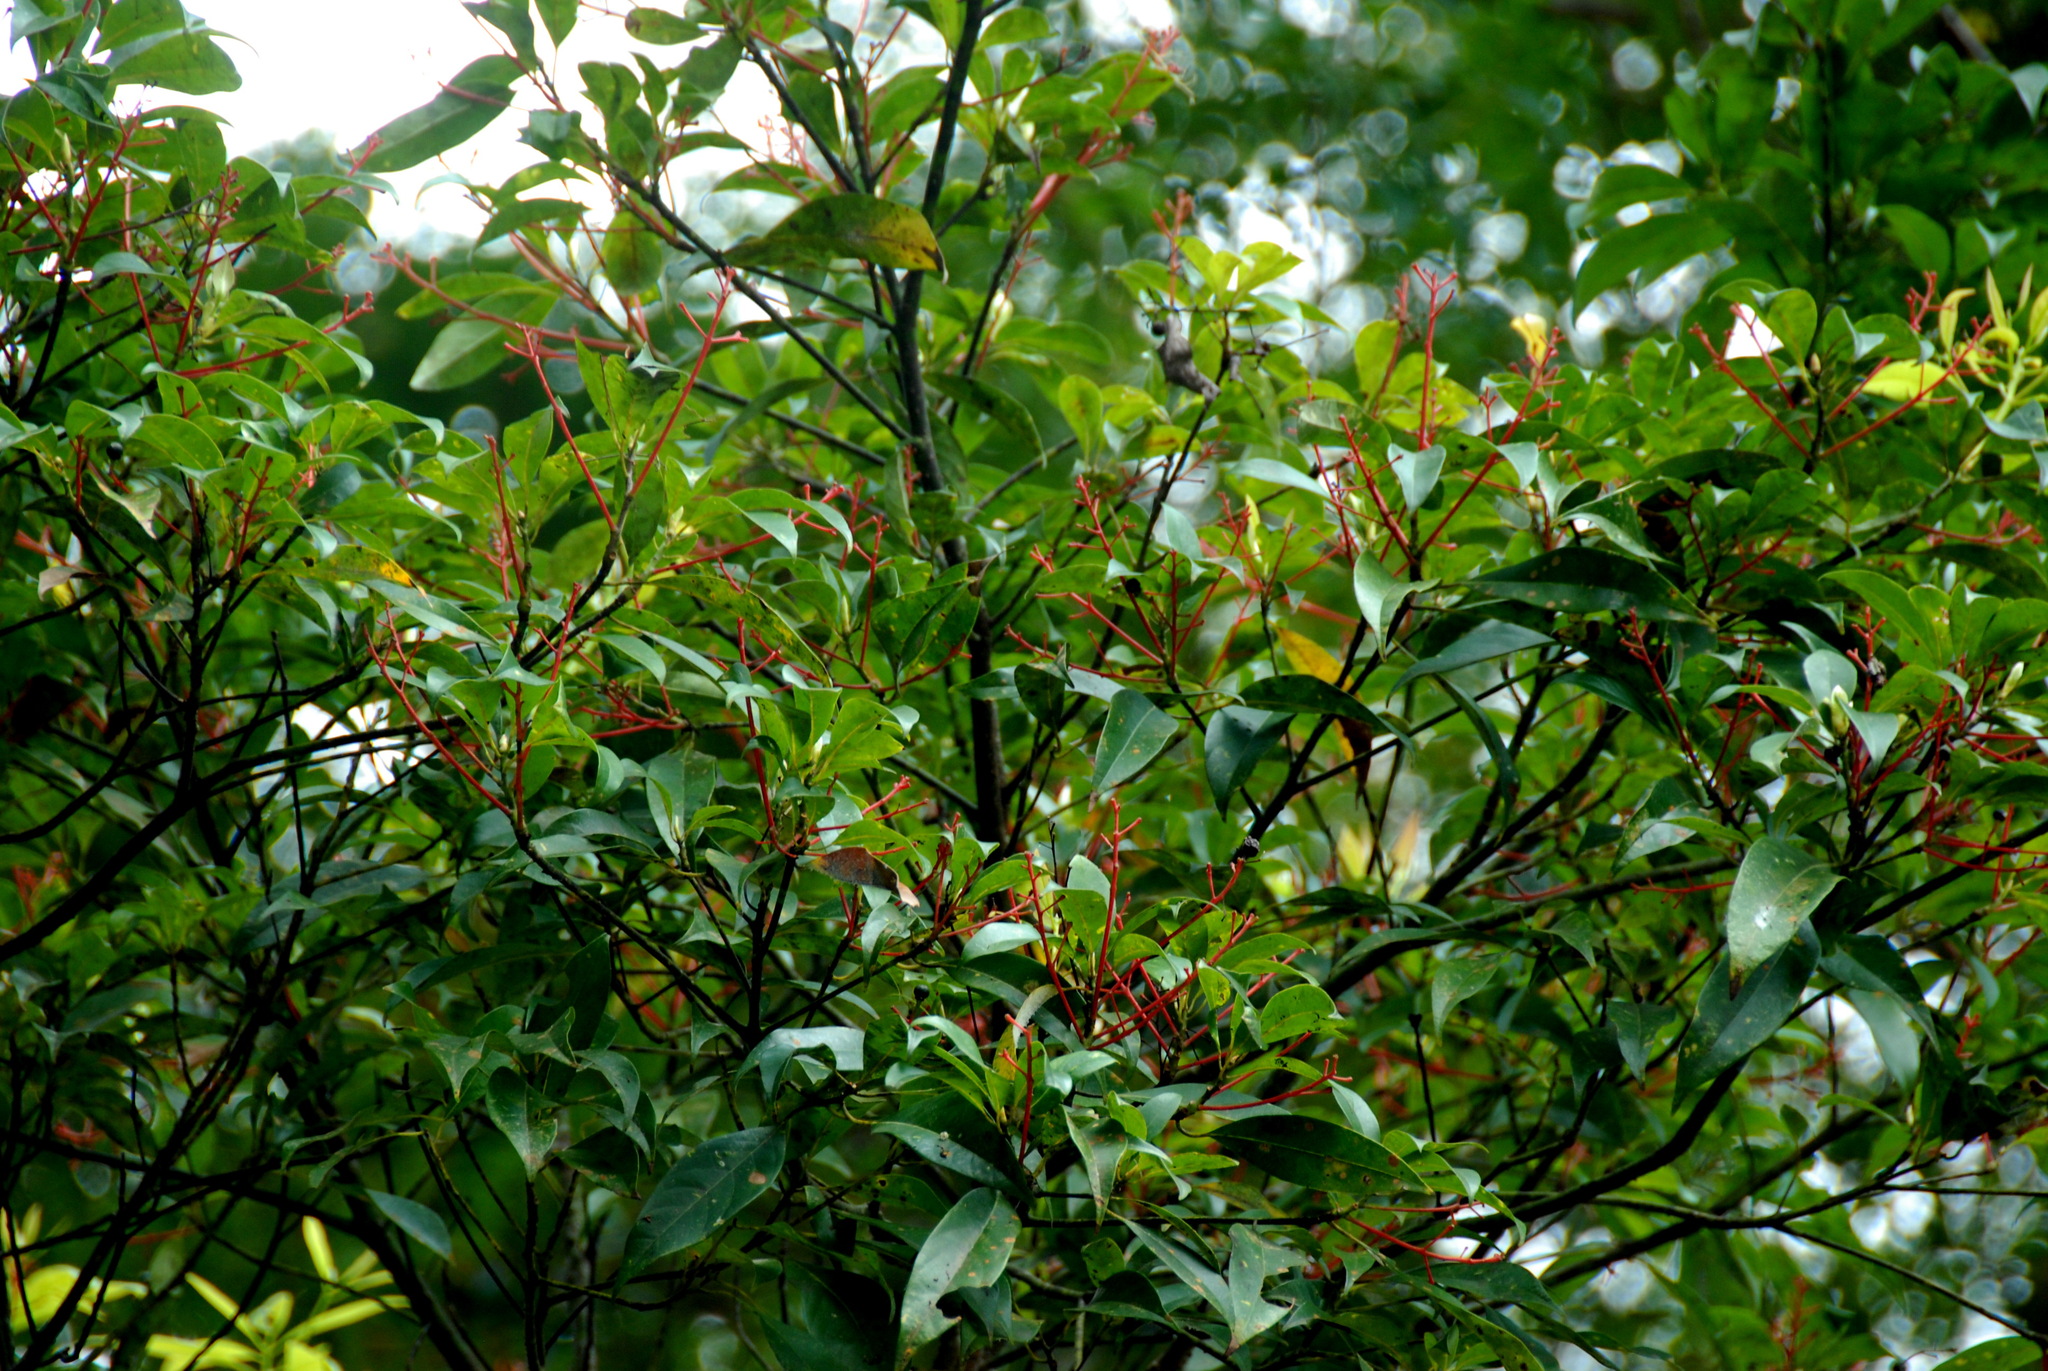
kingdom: Plantae
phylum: Tracheophyta
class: Magnoliopsida
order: Laurales
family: Lauraceae
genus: Machilus
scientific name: Machilus thunbergii
